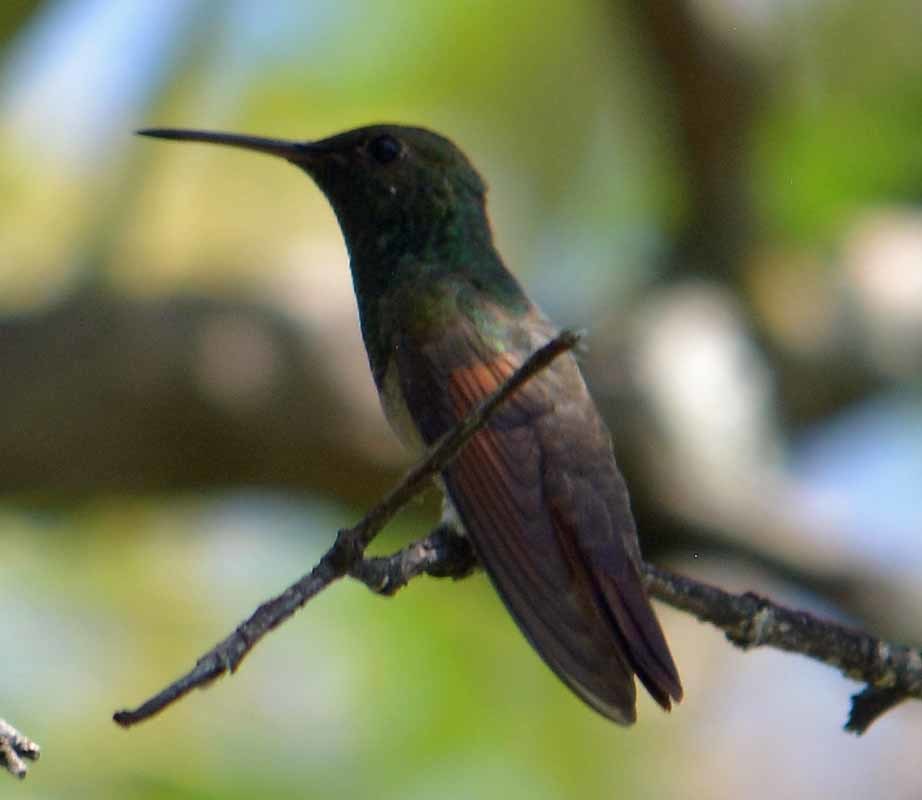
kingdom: Animalia
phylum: Chordata
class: Aves
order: Apodiformes
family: Trochilidae
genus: Saucerottia
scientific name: Saucerottia beryllina
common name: Berylline hummingbird
